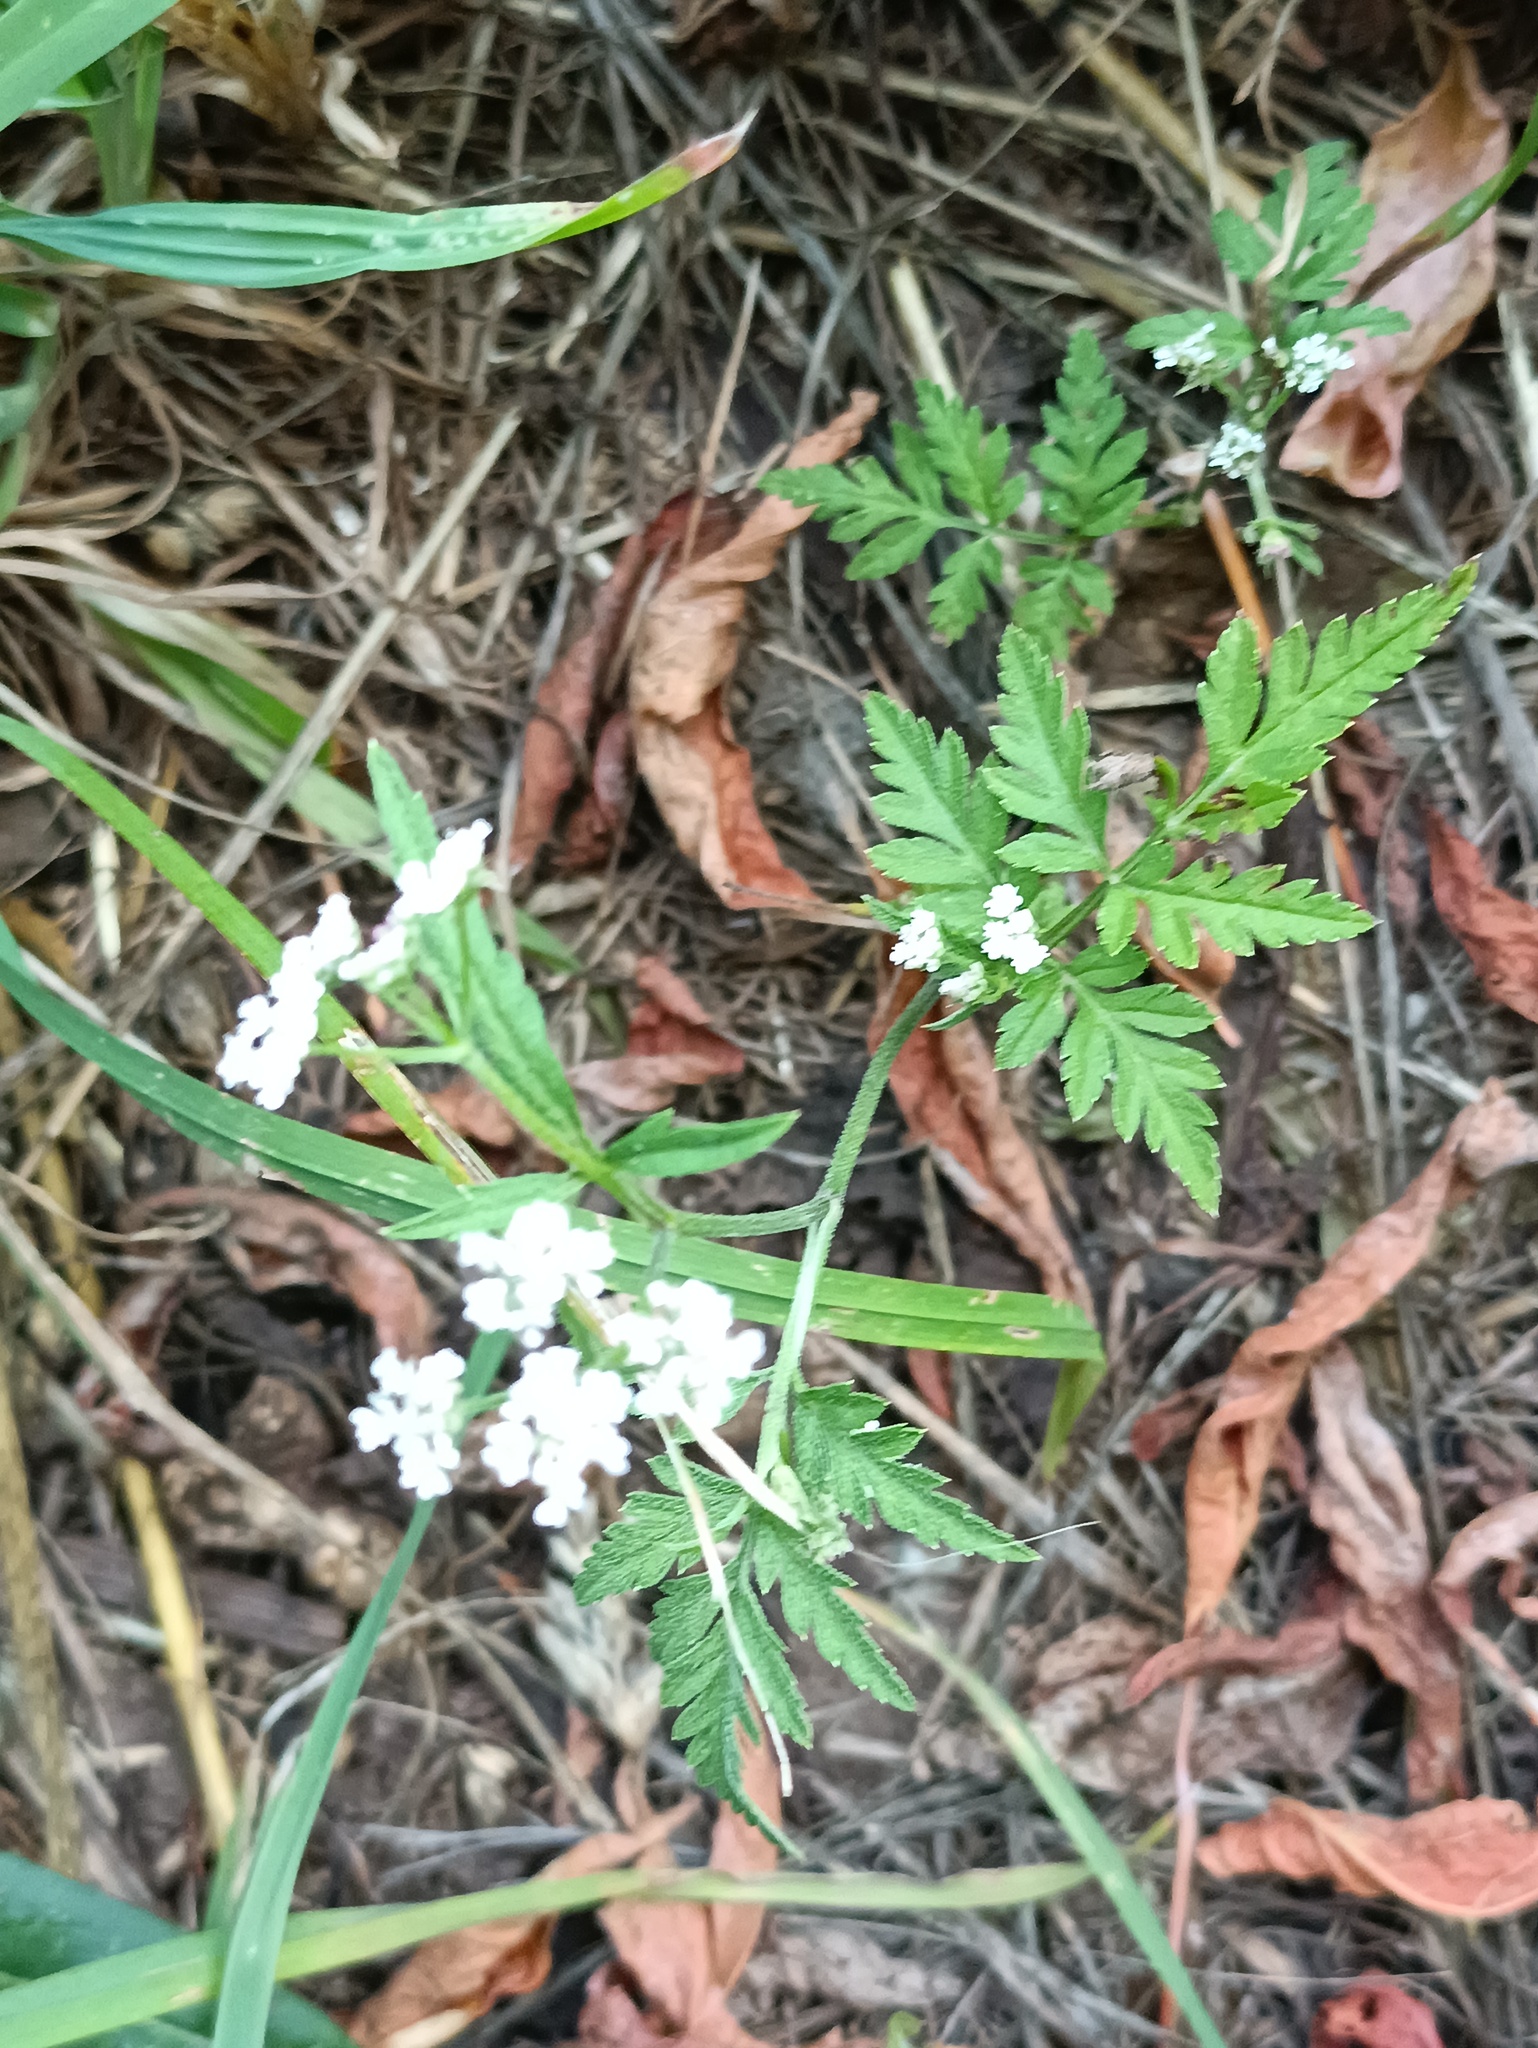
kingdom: Plantae
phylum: Tracheophyta
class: Magnoliopsida
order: Apiales
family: Apiaceae
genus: Torilis
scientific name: Torilis japonica
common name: Upright hedge-parsley
